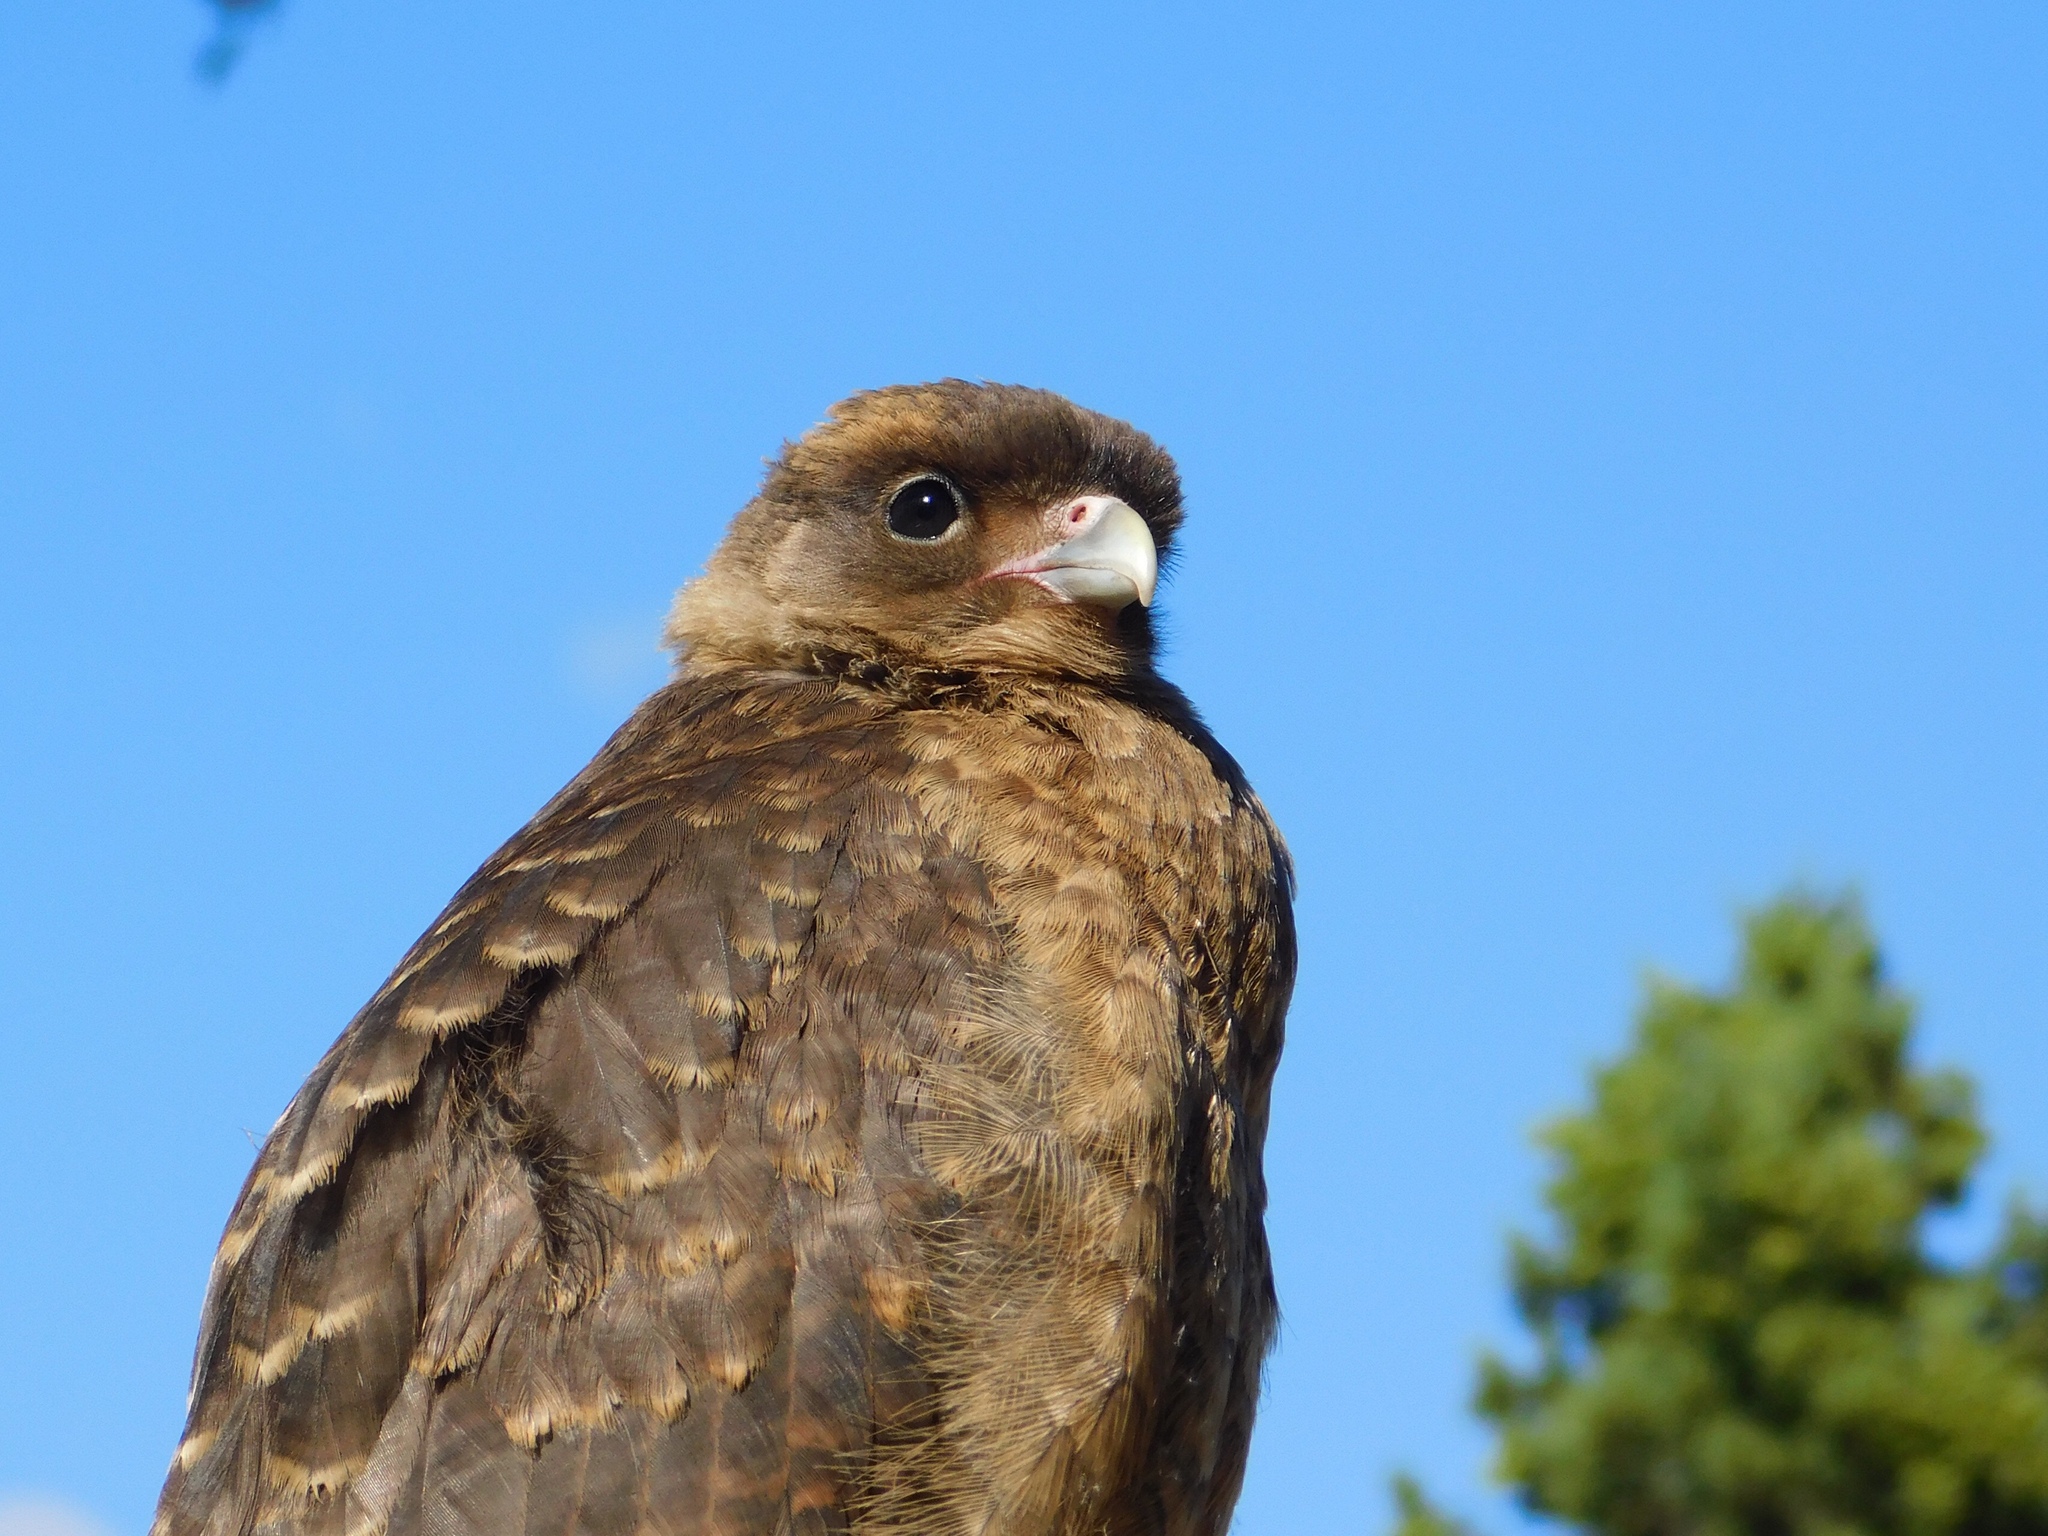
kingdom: Animalia
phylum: Chordata
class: Aves
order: Falconiformes
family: Falconidae
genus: Daptrius
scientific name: Daptrius
